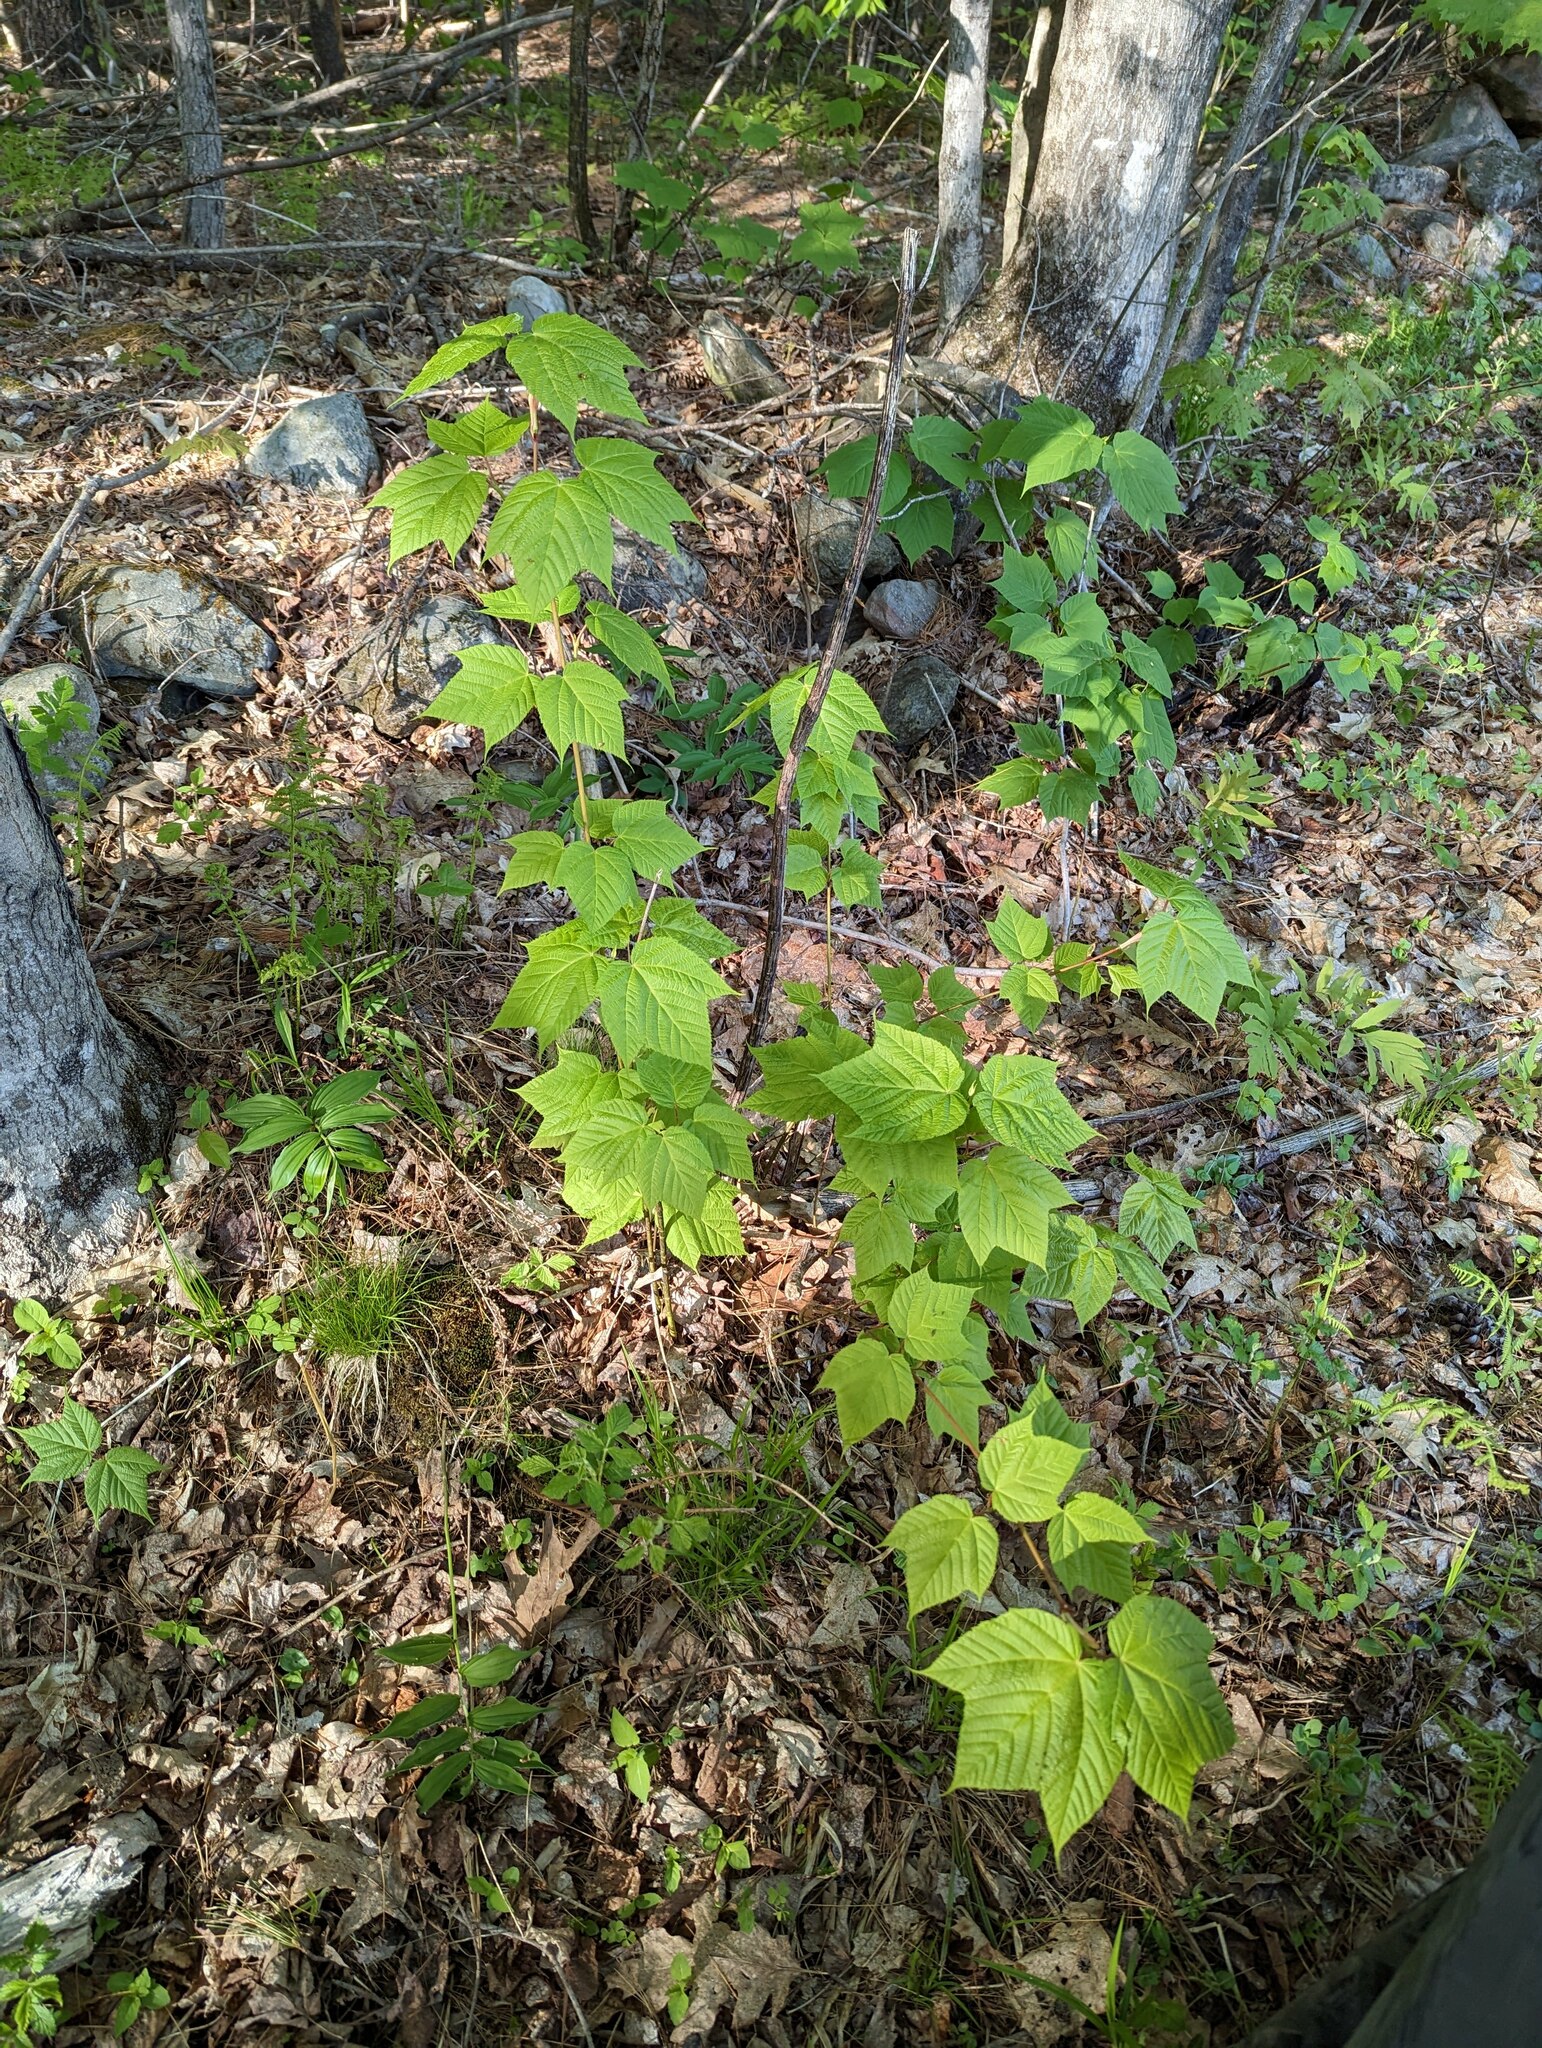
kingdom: Plantae
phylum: Tracheophyta
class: Magnoliopsida
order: Sapindales
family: Sapindaceae
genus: Acer
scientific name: Acer pensylvanicum
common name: Moosewood
